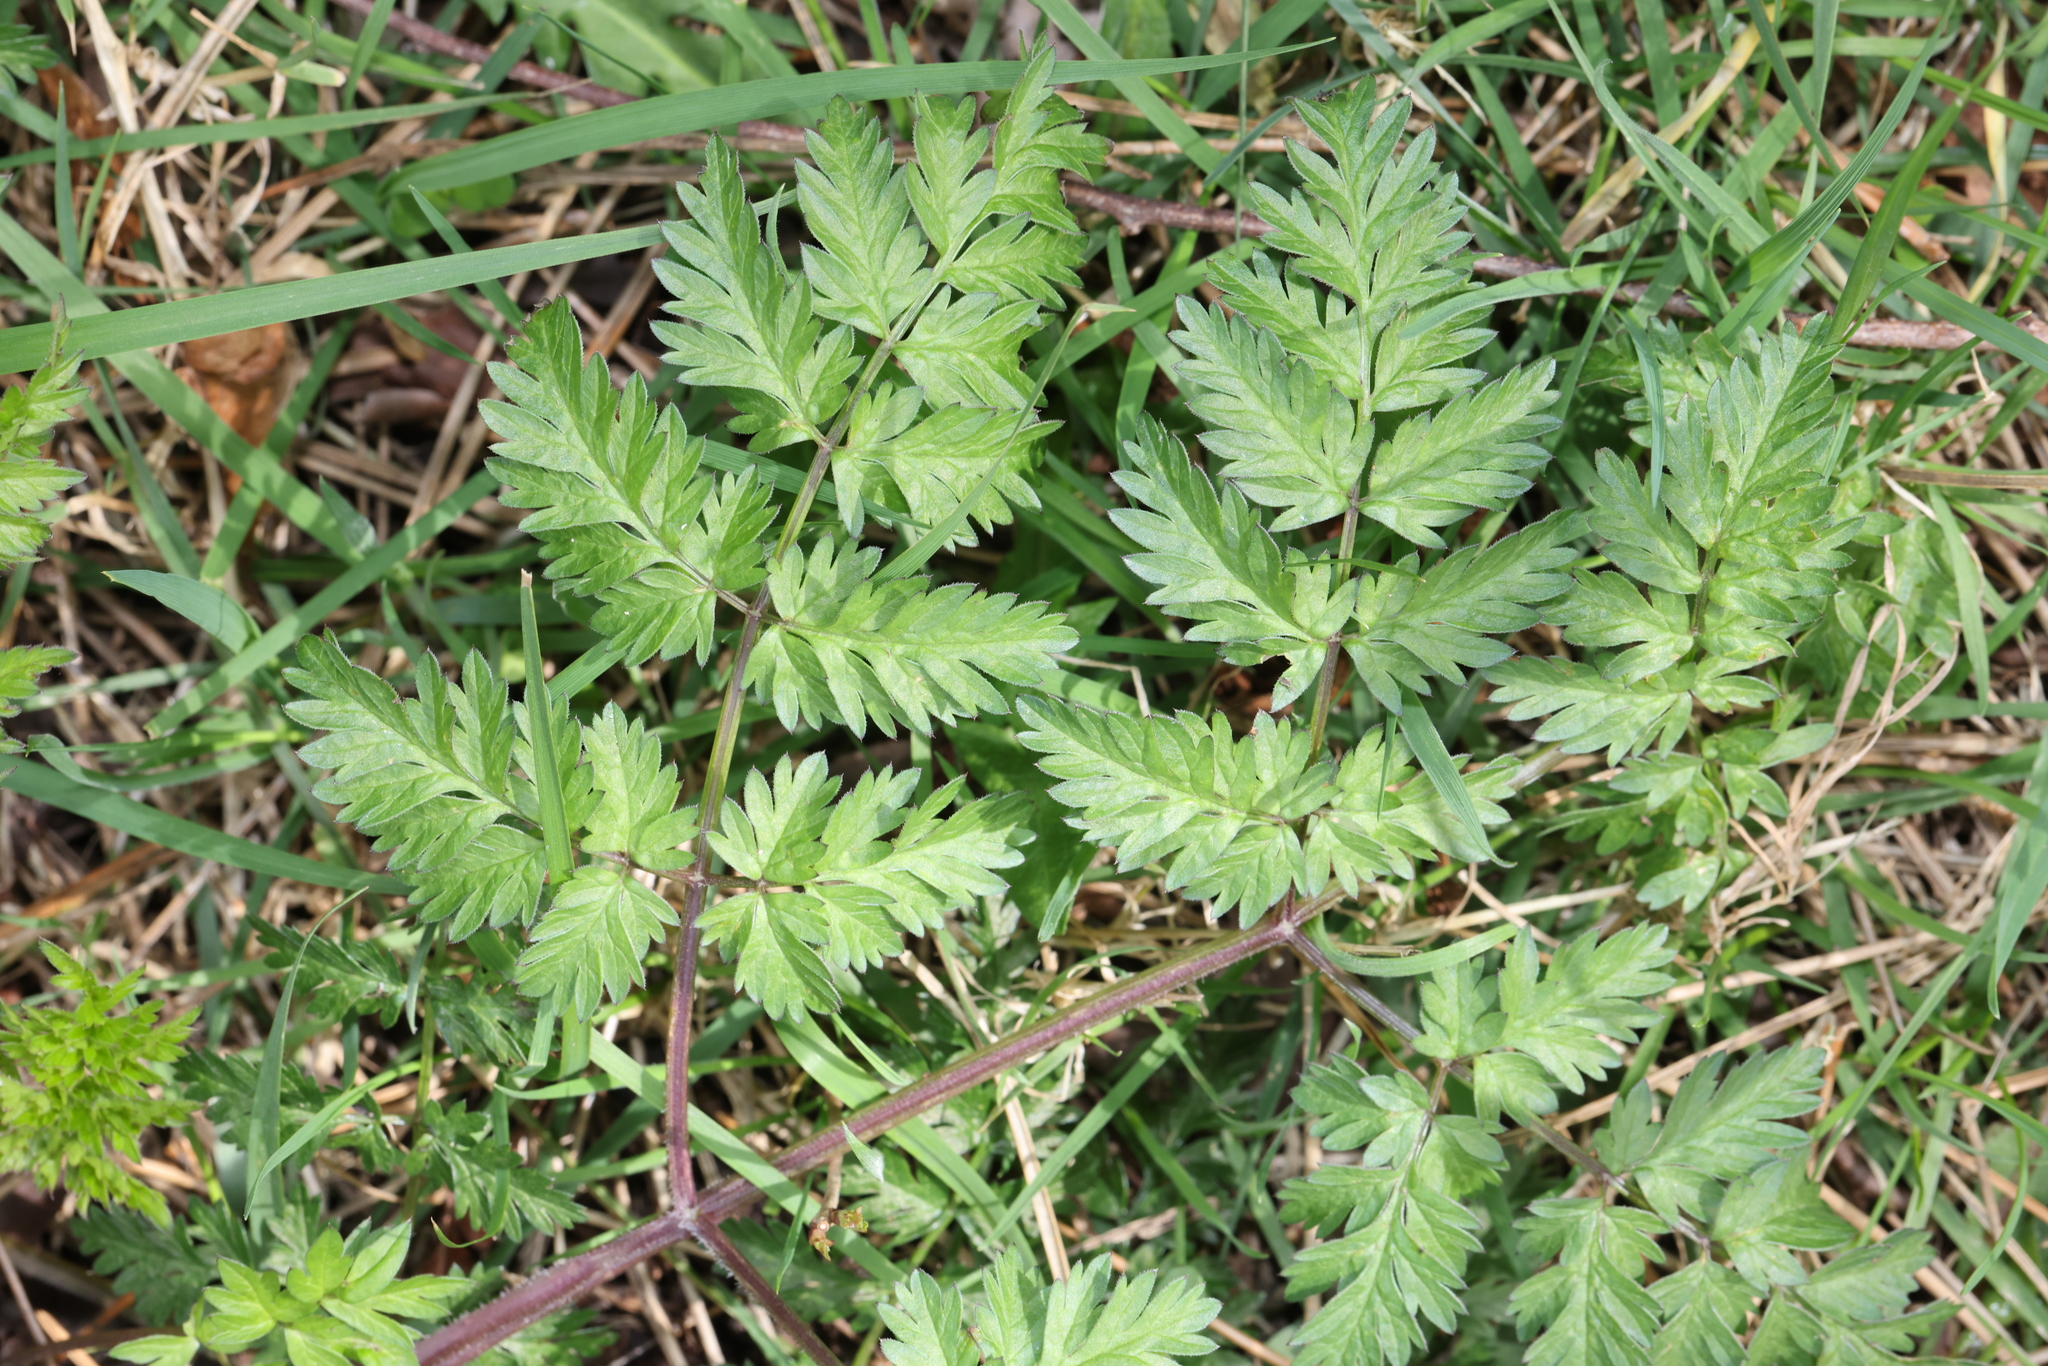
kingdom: Plantae
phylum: Tracheophyta
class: Magnoliopsida
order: Apiales
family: Apiaceae
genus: Anthriscus
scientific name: Anthriscus sylvestris
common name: Cow parsley
